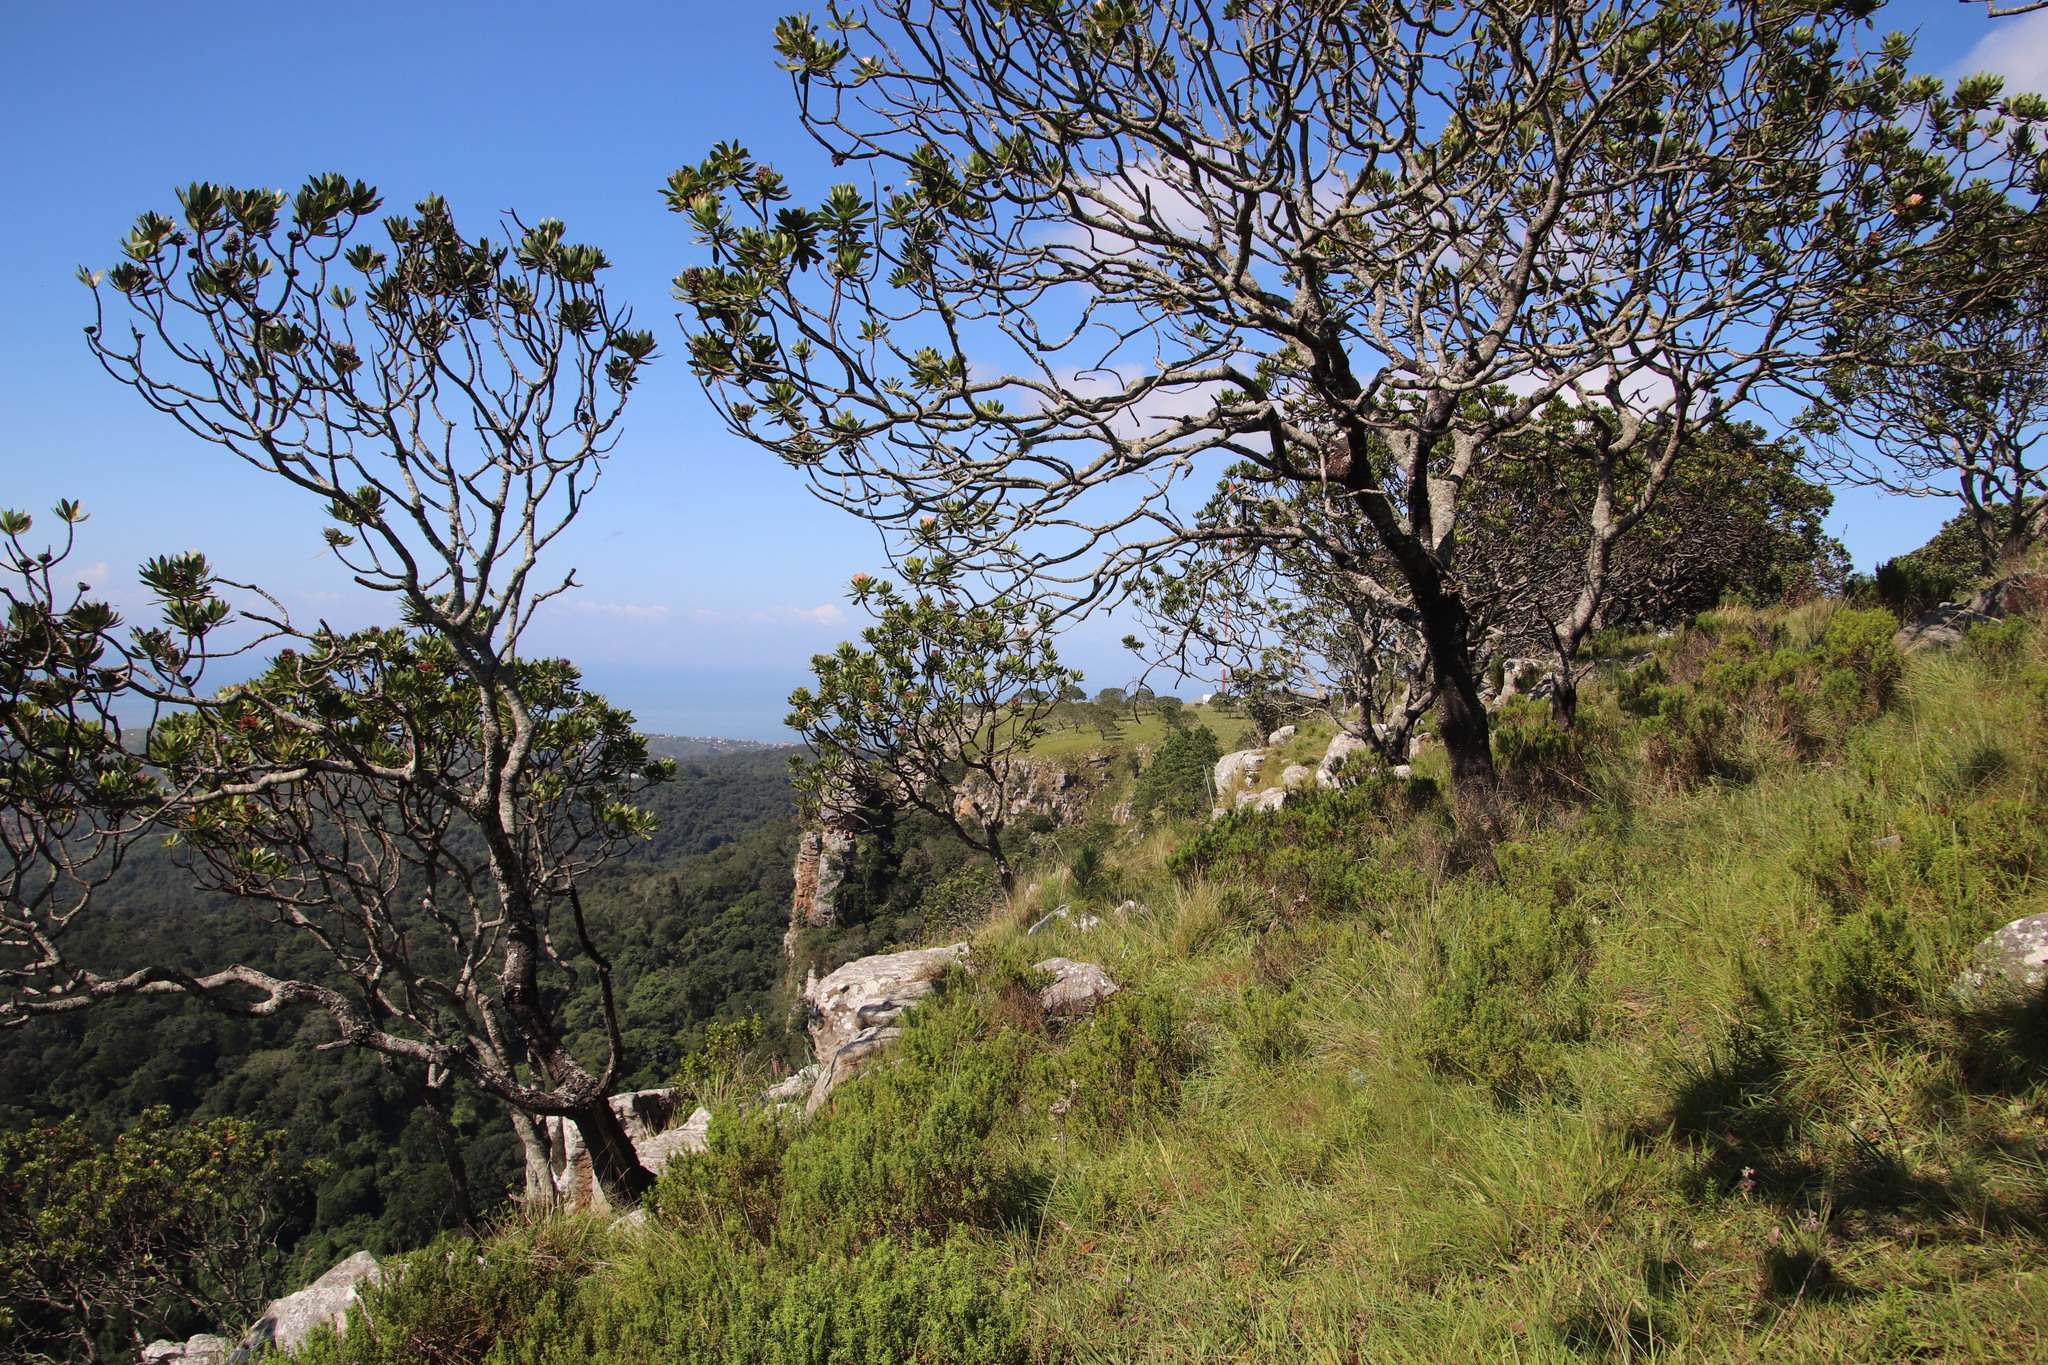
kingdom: Plantae
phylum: Tracheophyta
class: Magnoliopsida
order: Proteales
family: Proteaceae
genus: Protea
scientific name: Protea roupelliae
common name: Silver sugarbush
